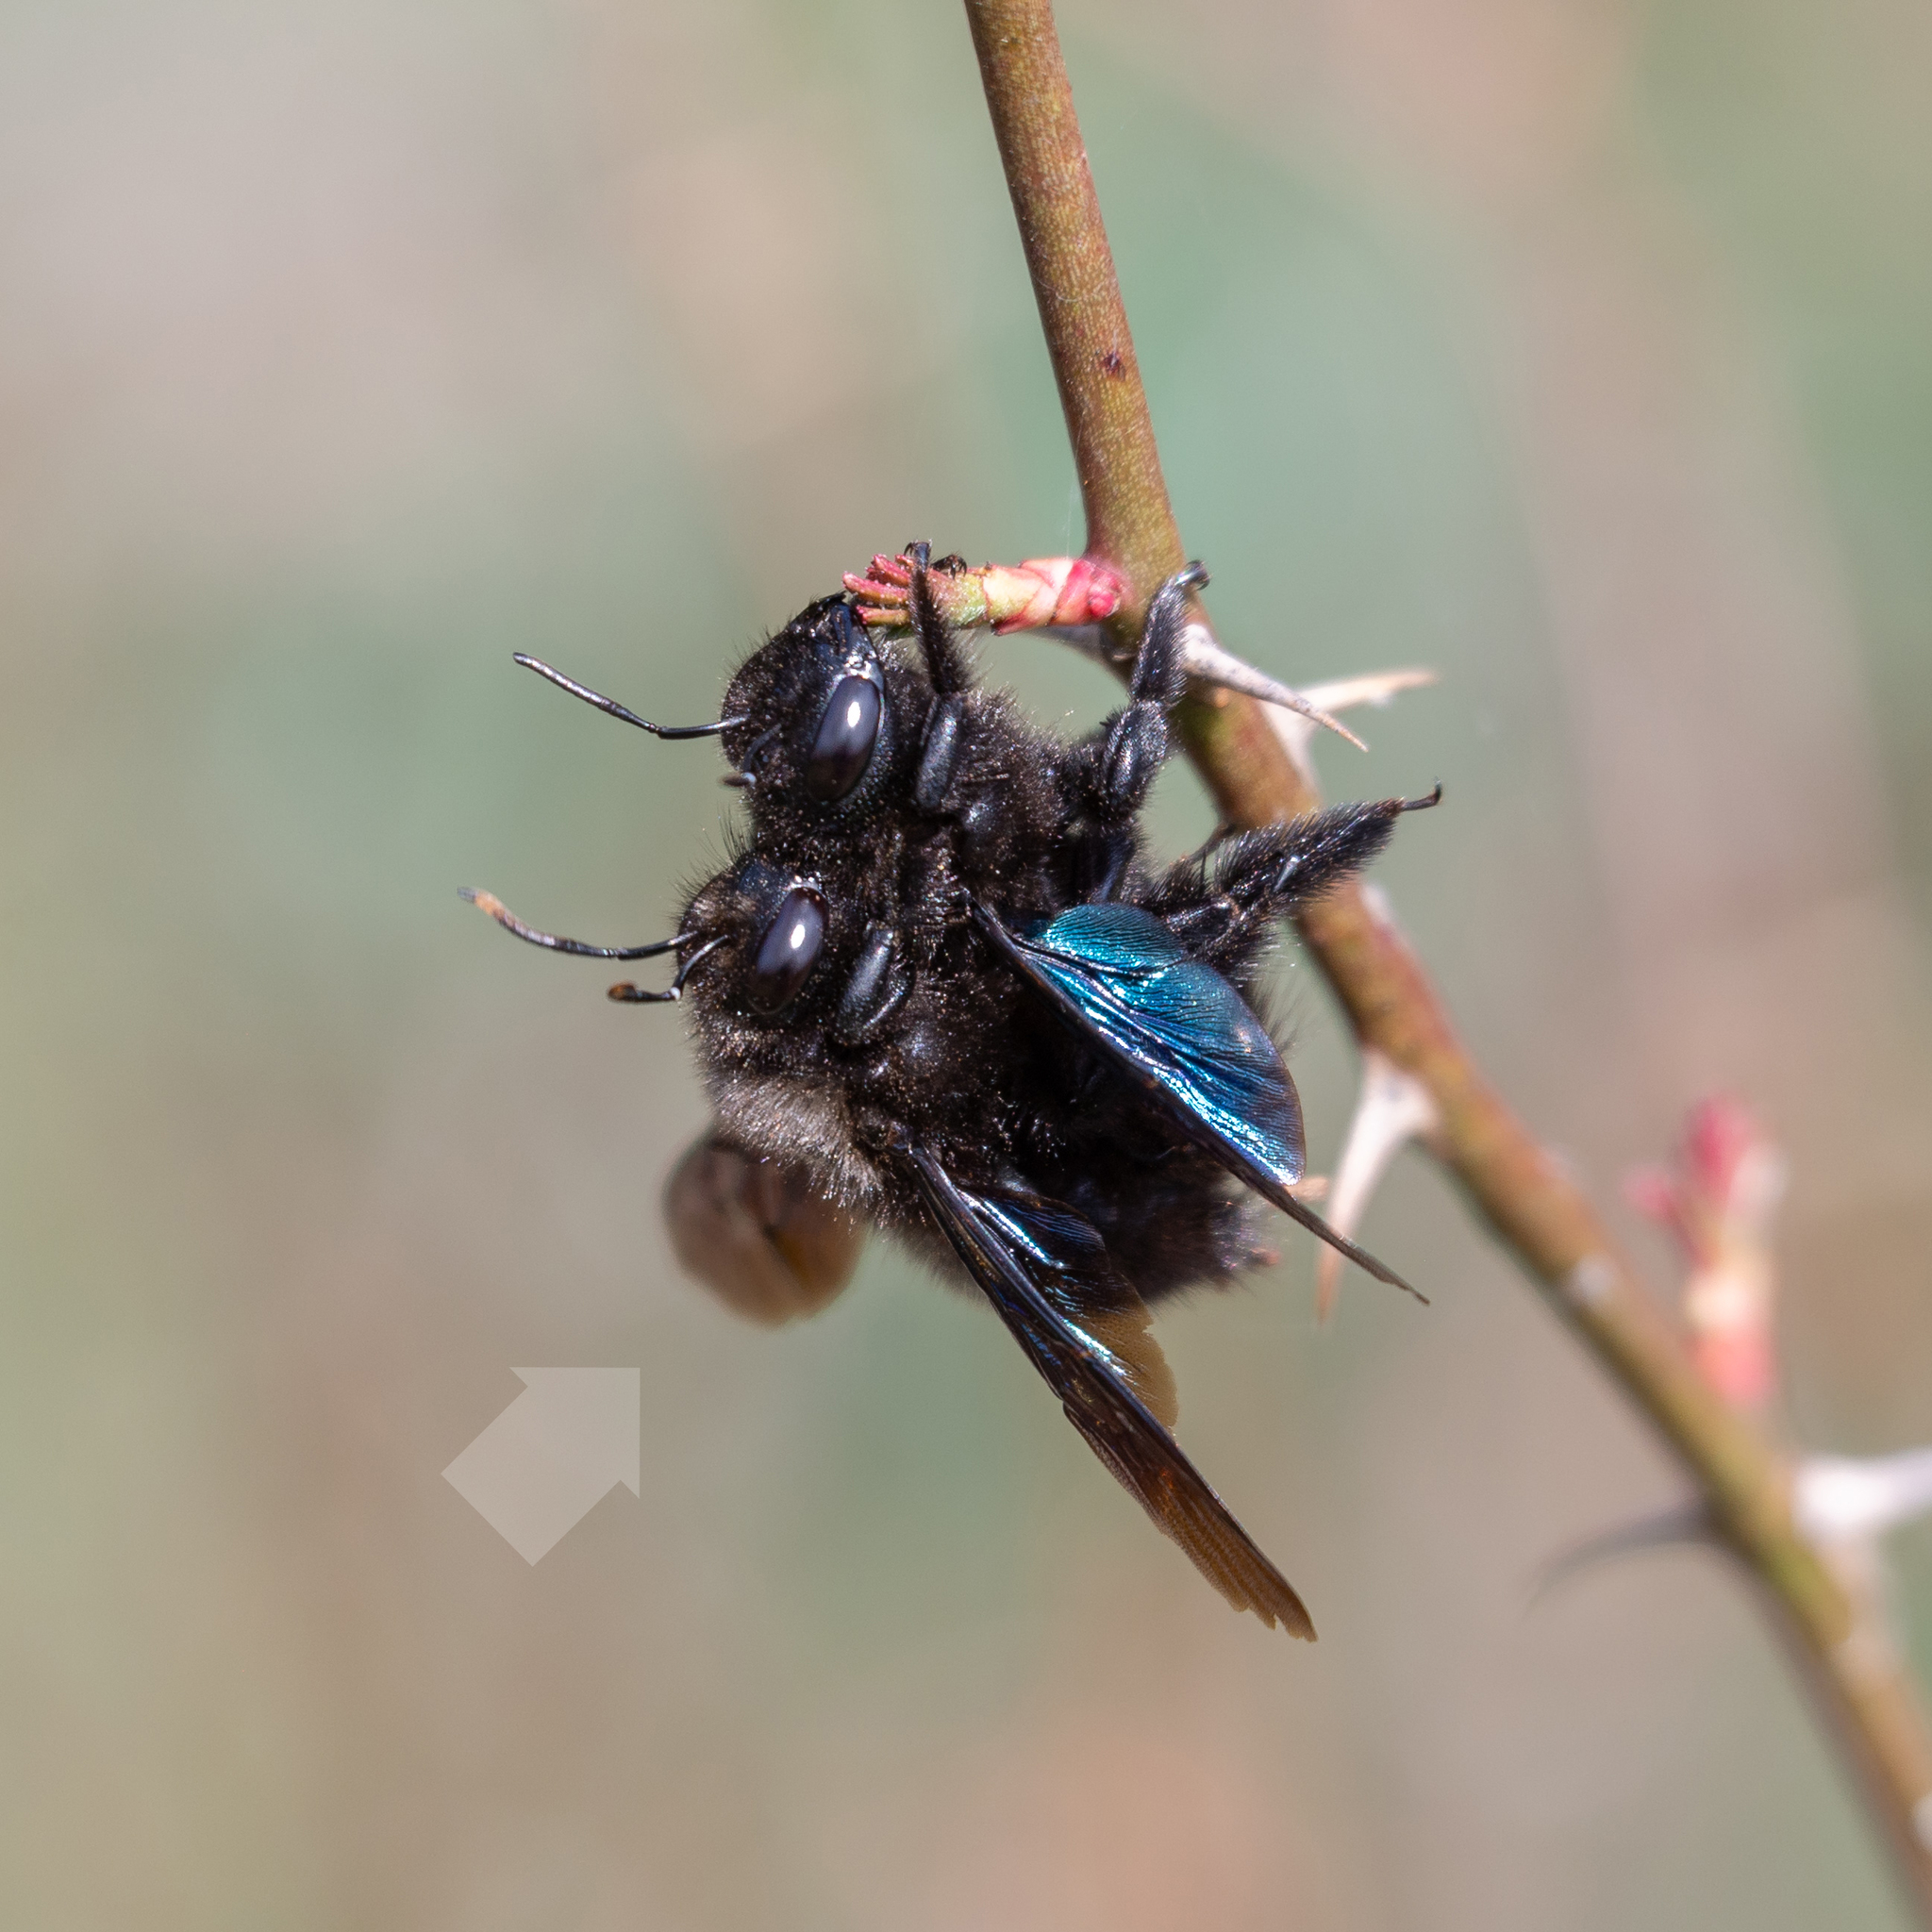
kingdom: Animalia
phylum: Arthropoda
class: Insecta
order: Hymenoptera
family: Apidae
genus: Xylocopa
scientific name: Xylocopa violacea
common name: Violet carpenter bee
